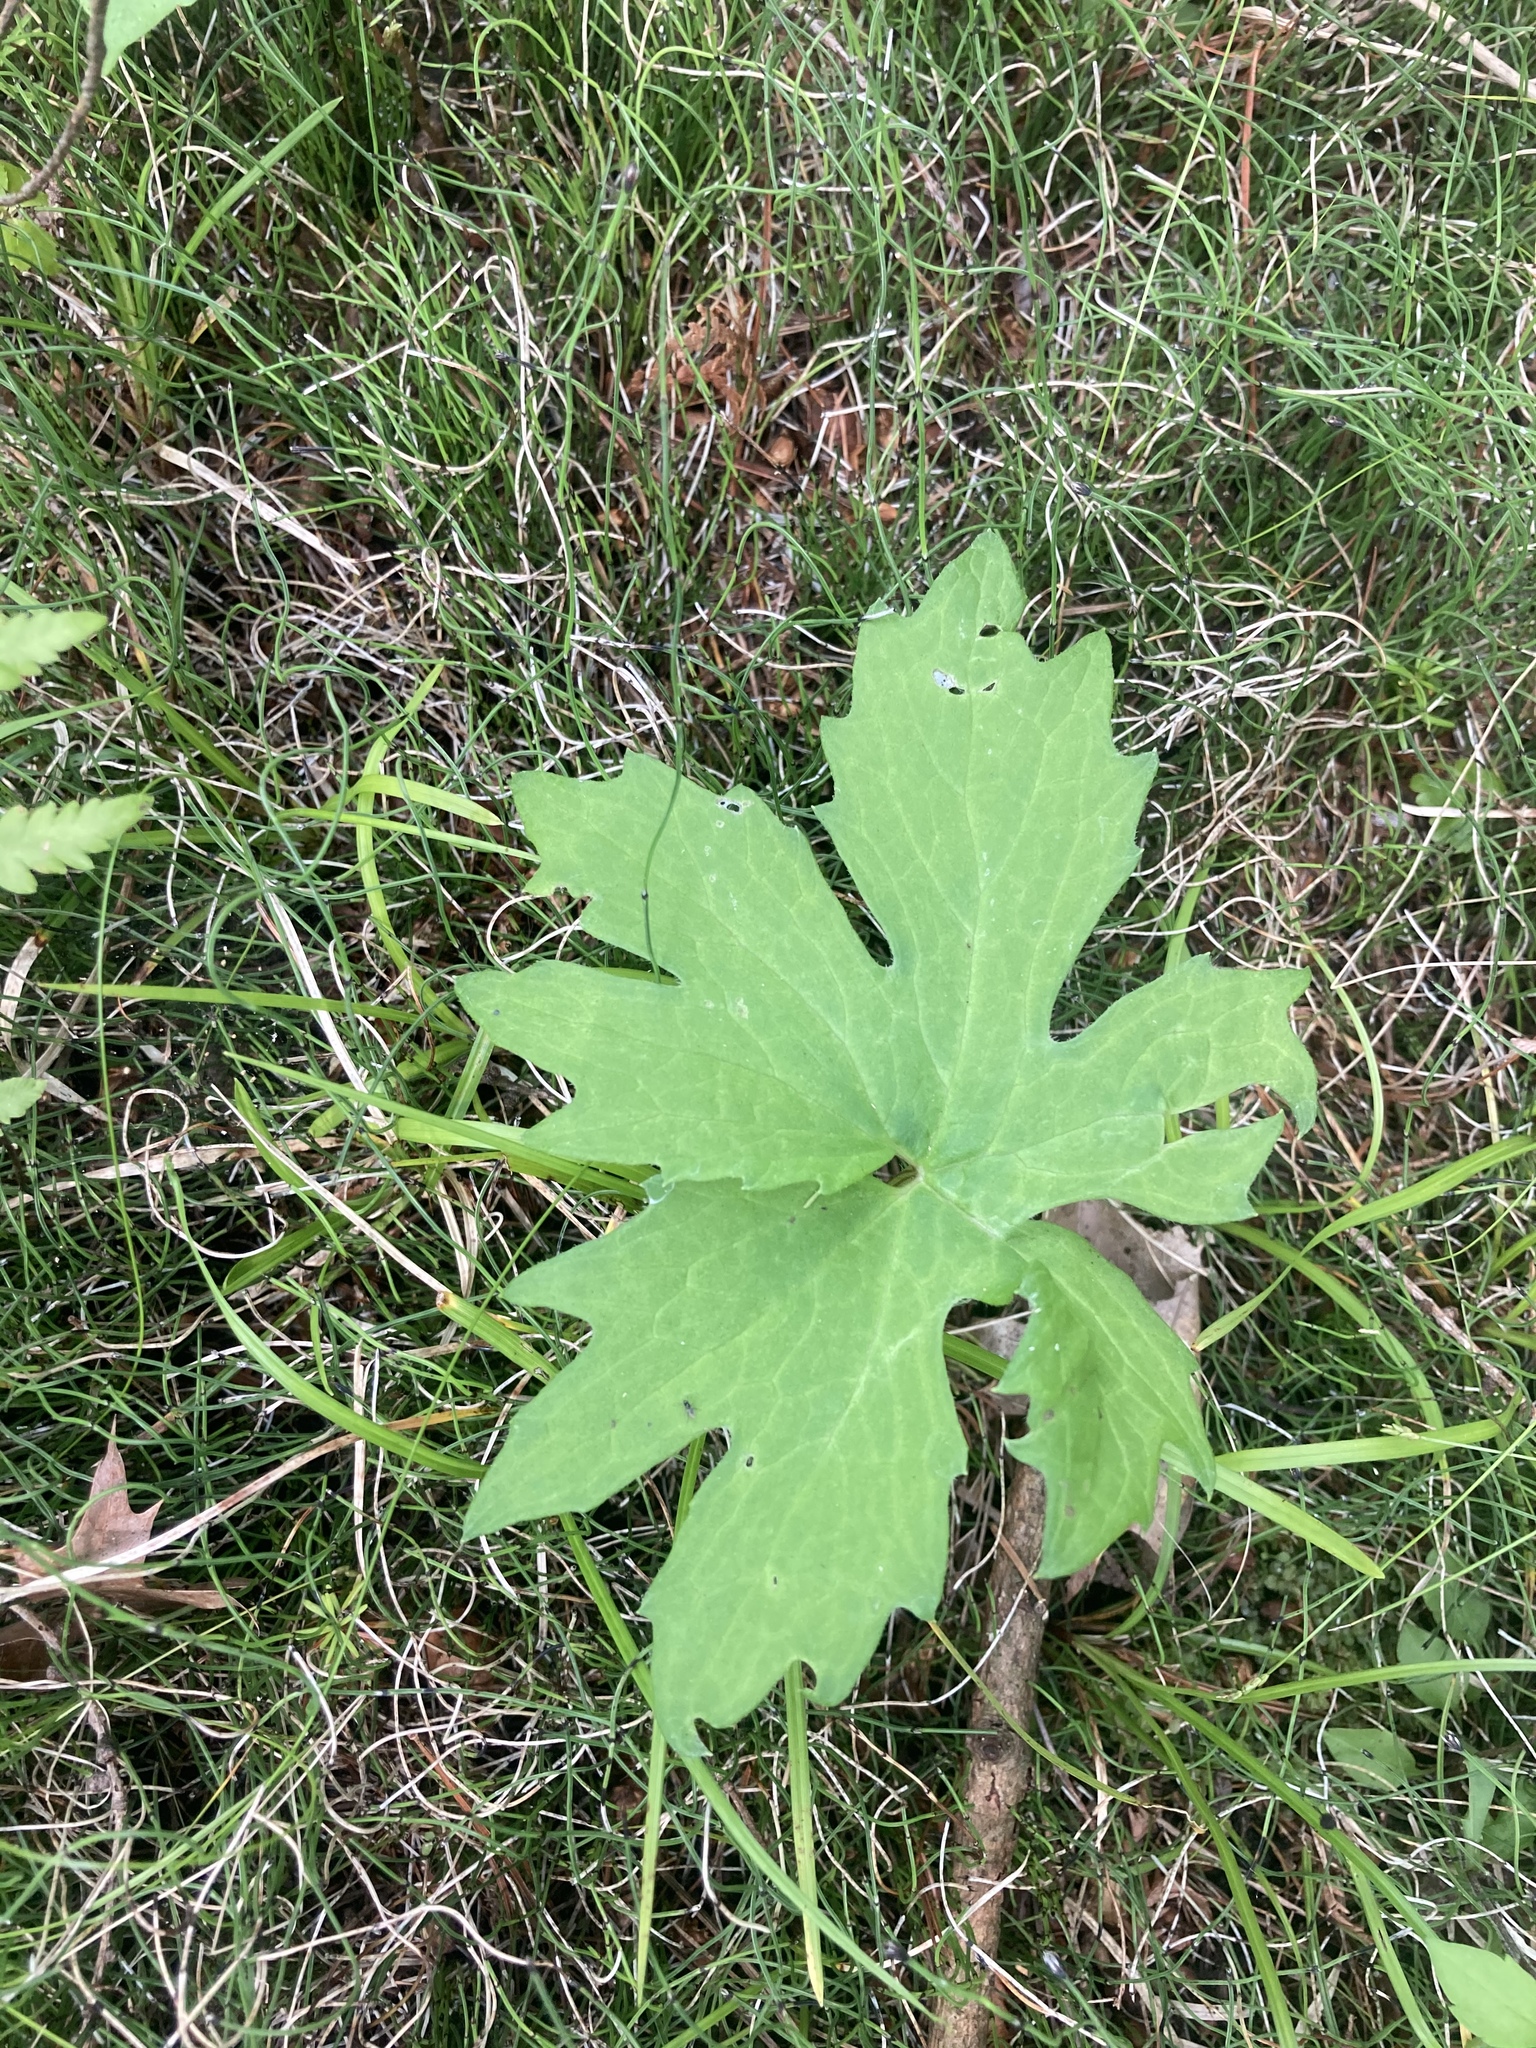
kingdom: Plantae
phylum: Tracheophyta
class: Magnoliopsida
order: Asterales
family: Asteraceae
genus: Petasites
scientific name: Petasites frigidus
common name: Arctic butterbur
